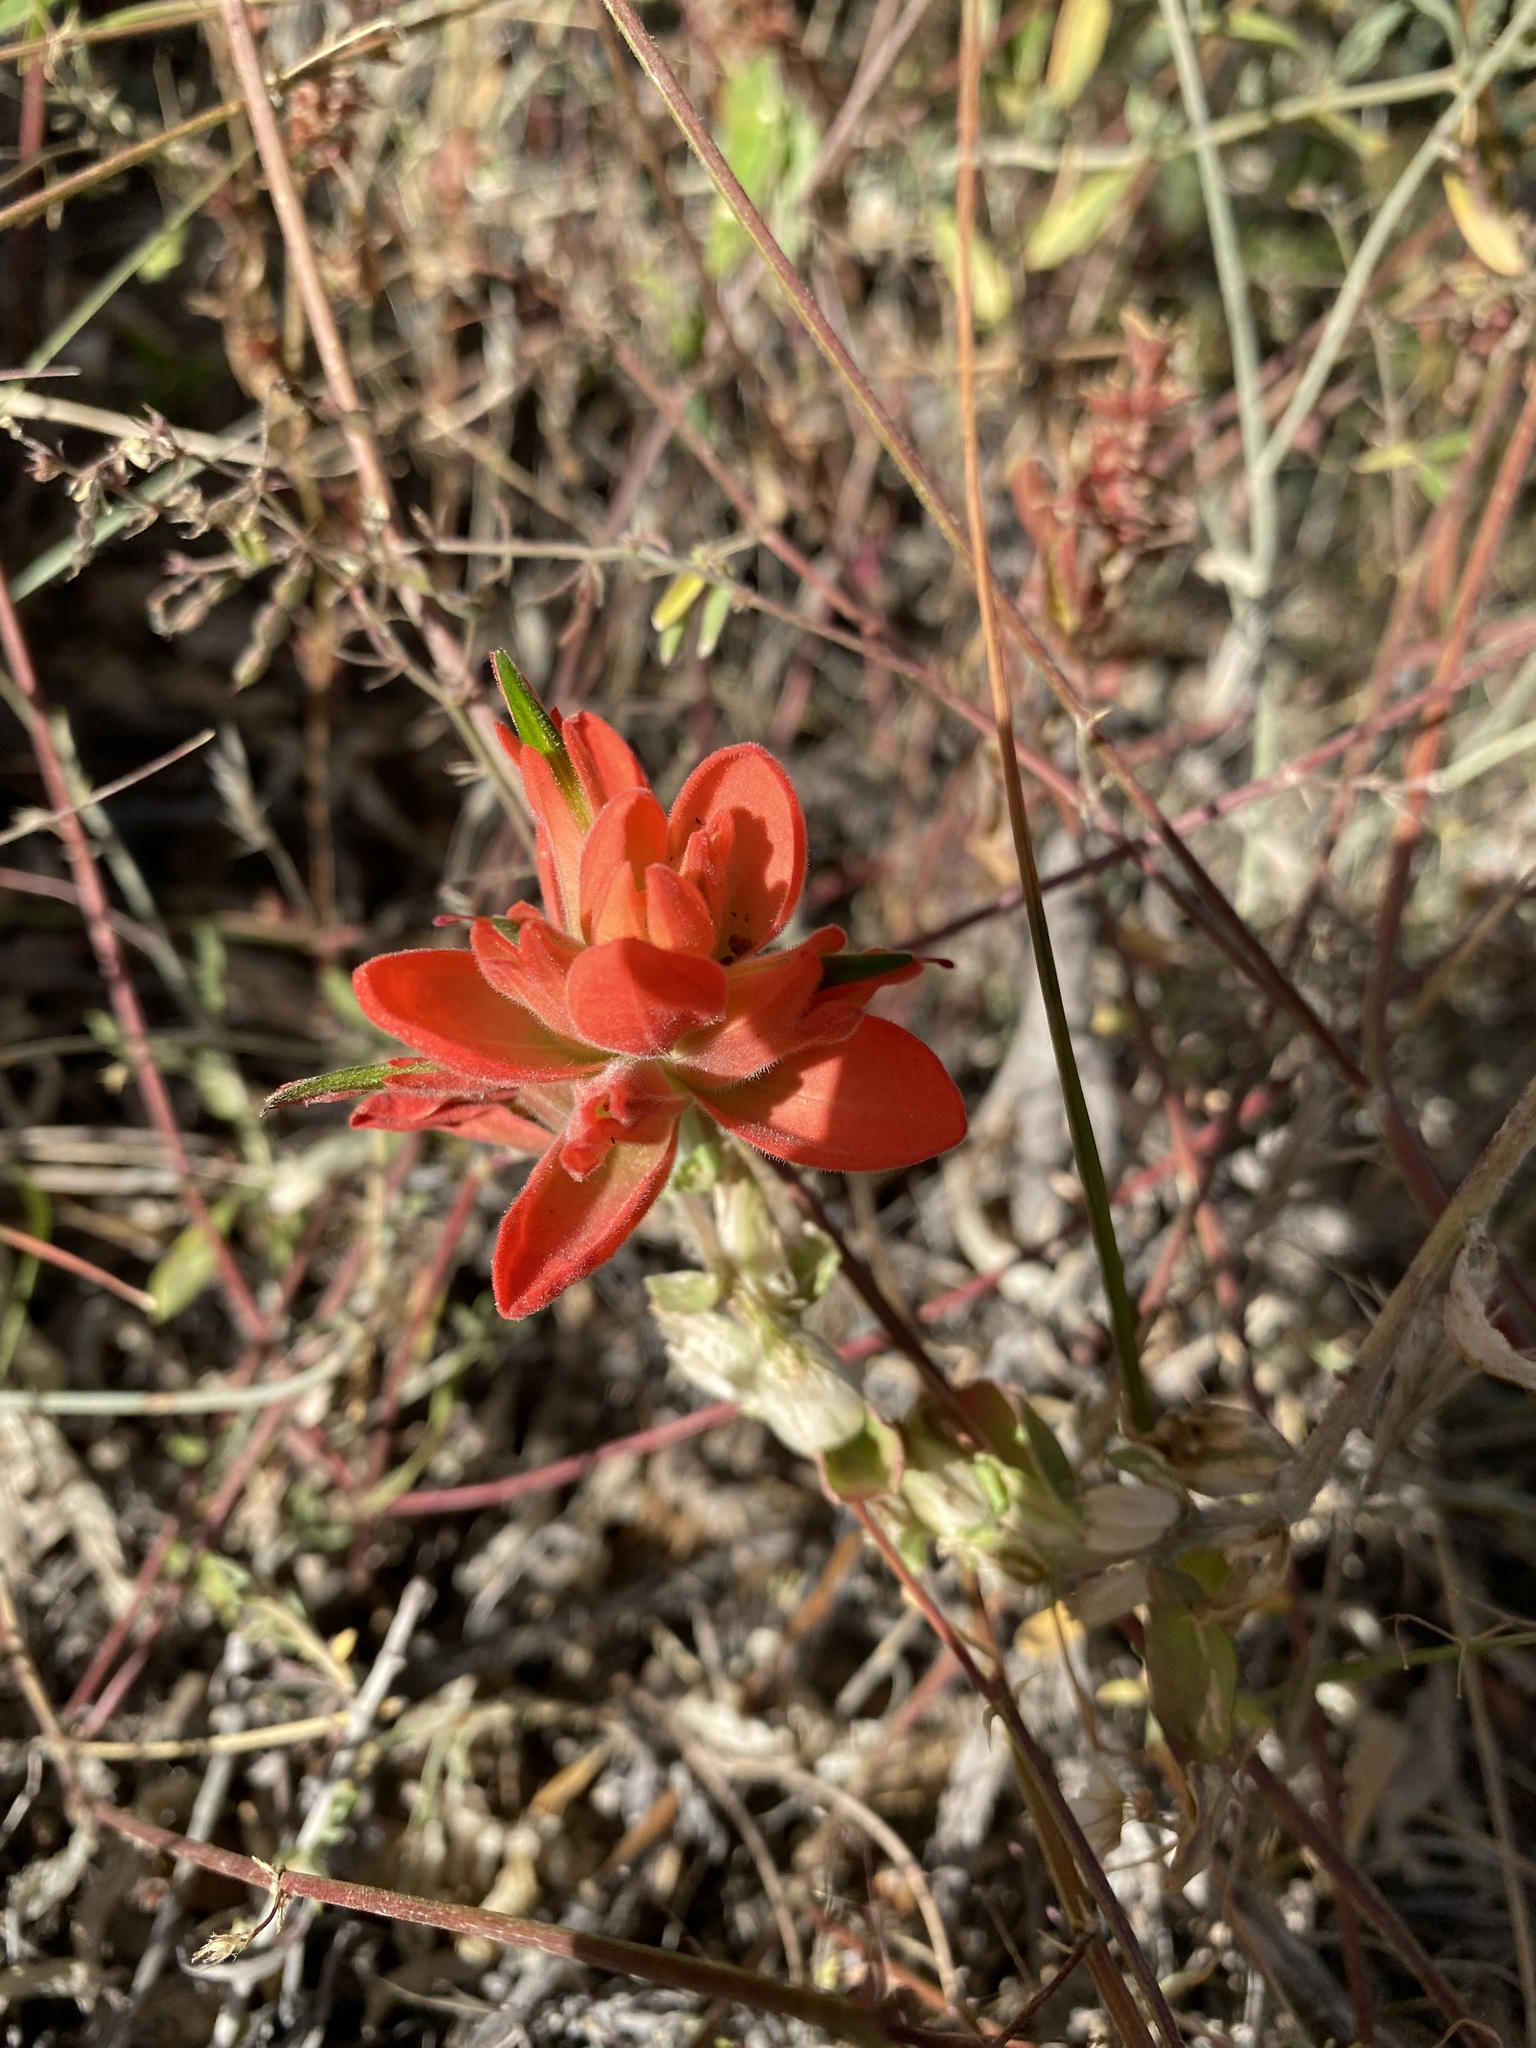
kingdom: Plantae
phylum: Tracheophyta
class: Magnoliopsida
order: Lamiales
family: Orobanchaceae
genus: Castilleja
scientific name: Castilleja integra
